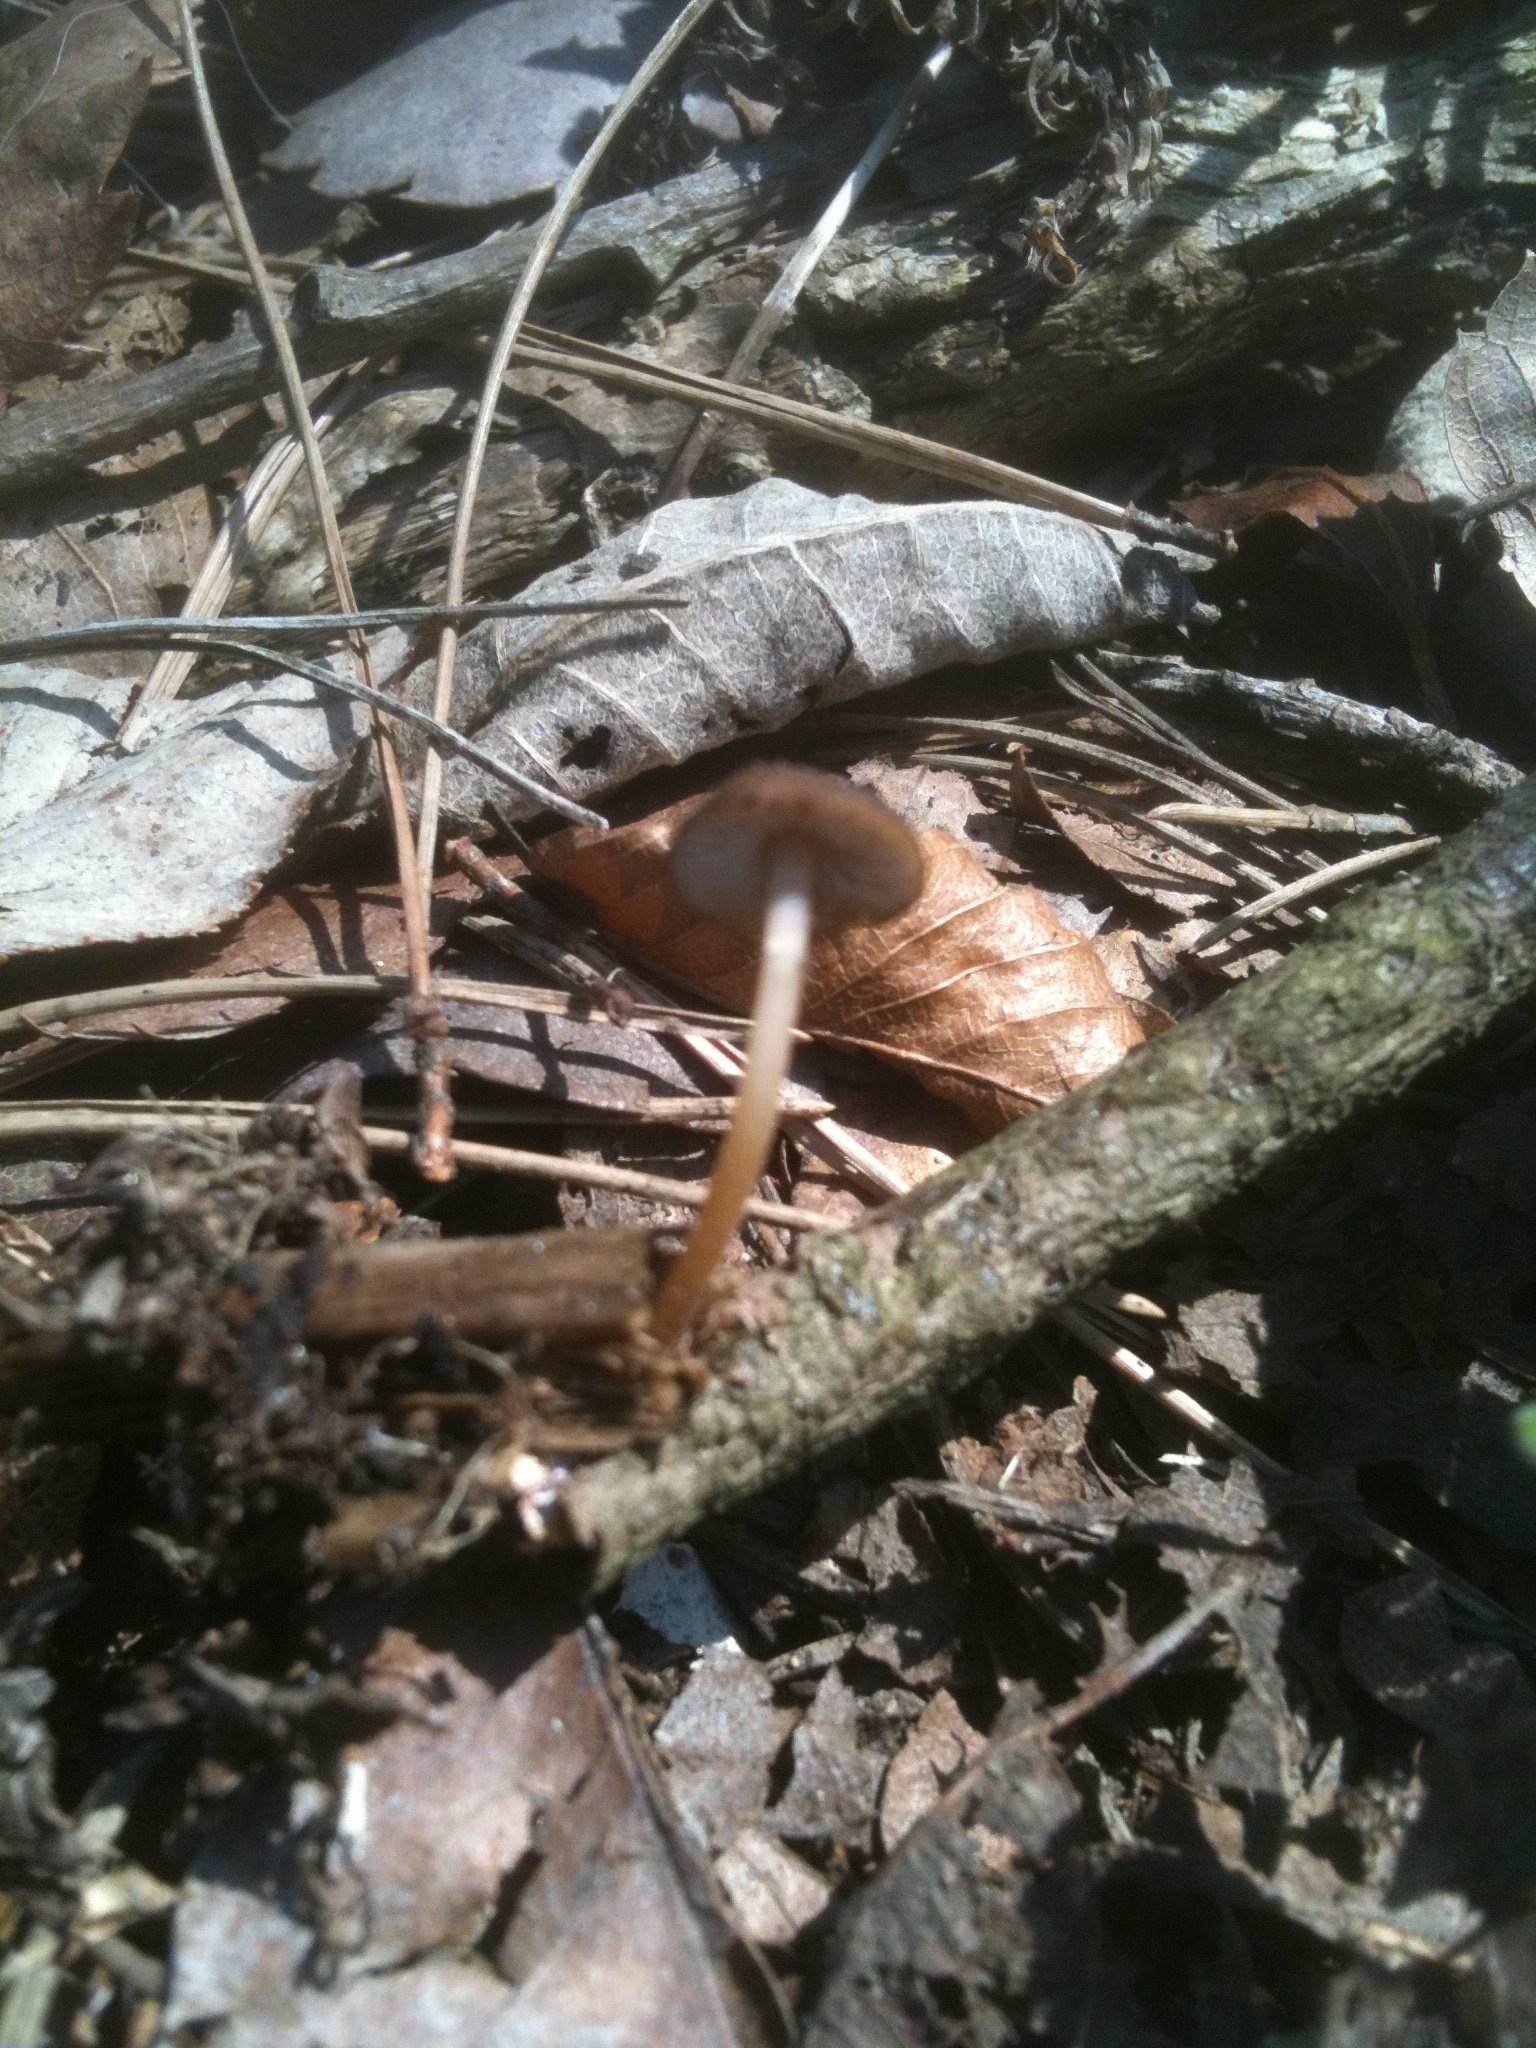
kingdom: Fungi
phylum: Basidiomycota
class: Agaricomycetes
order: Agaricales
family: Physalacriaceae
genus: Strobilurus
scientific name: Strobilurus stephanocystis
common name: Russian conecap
